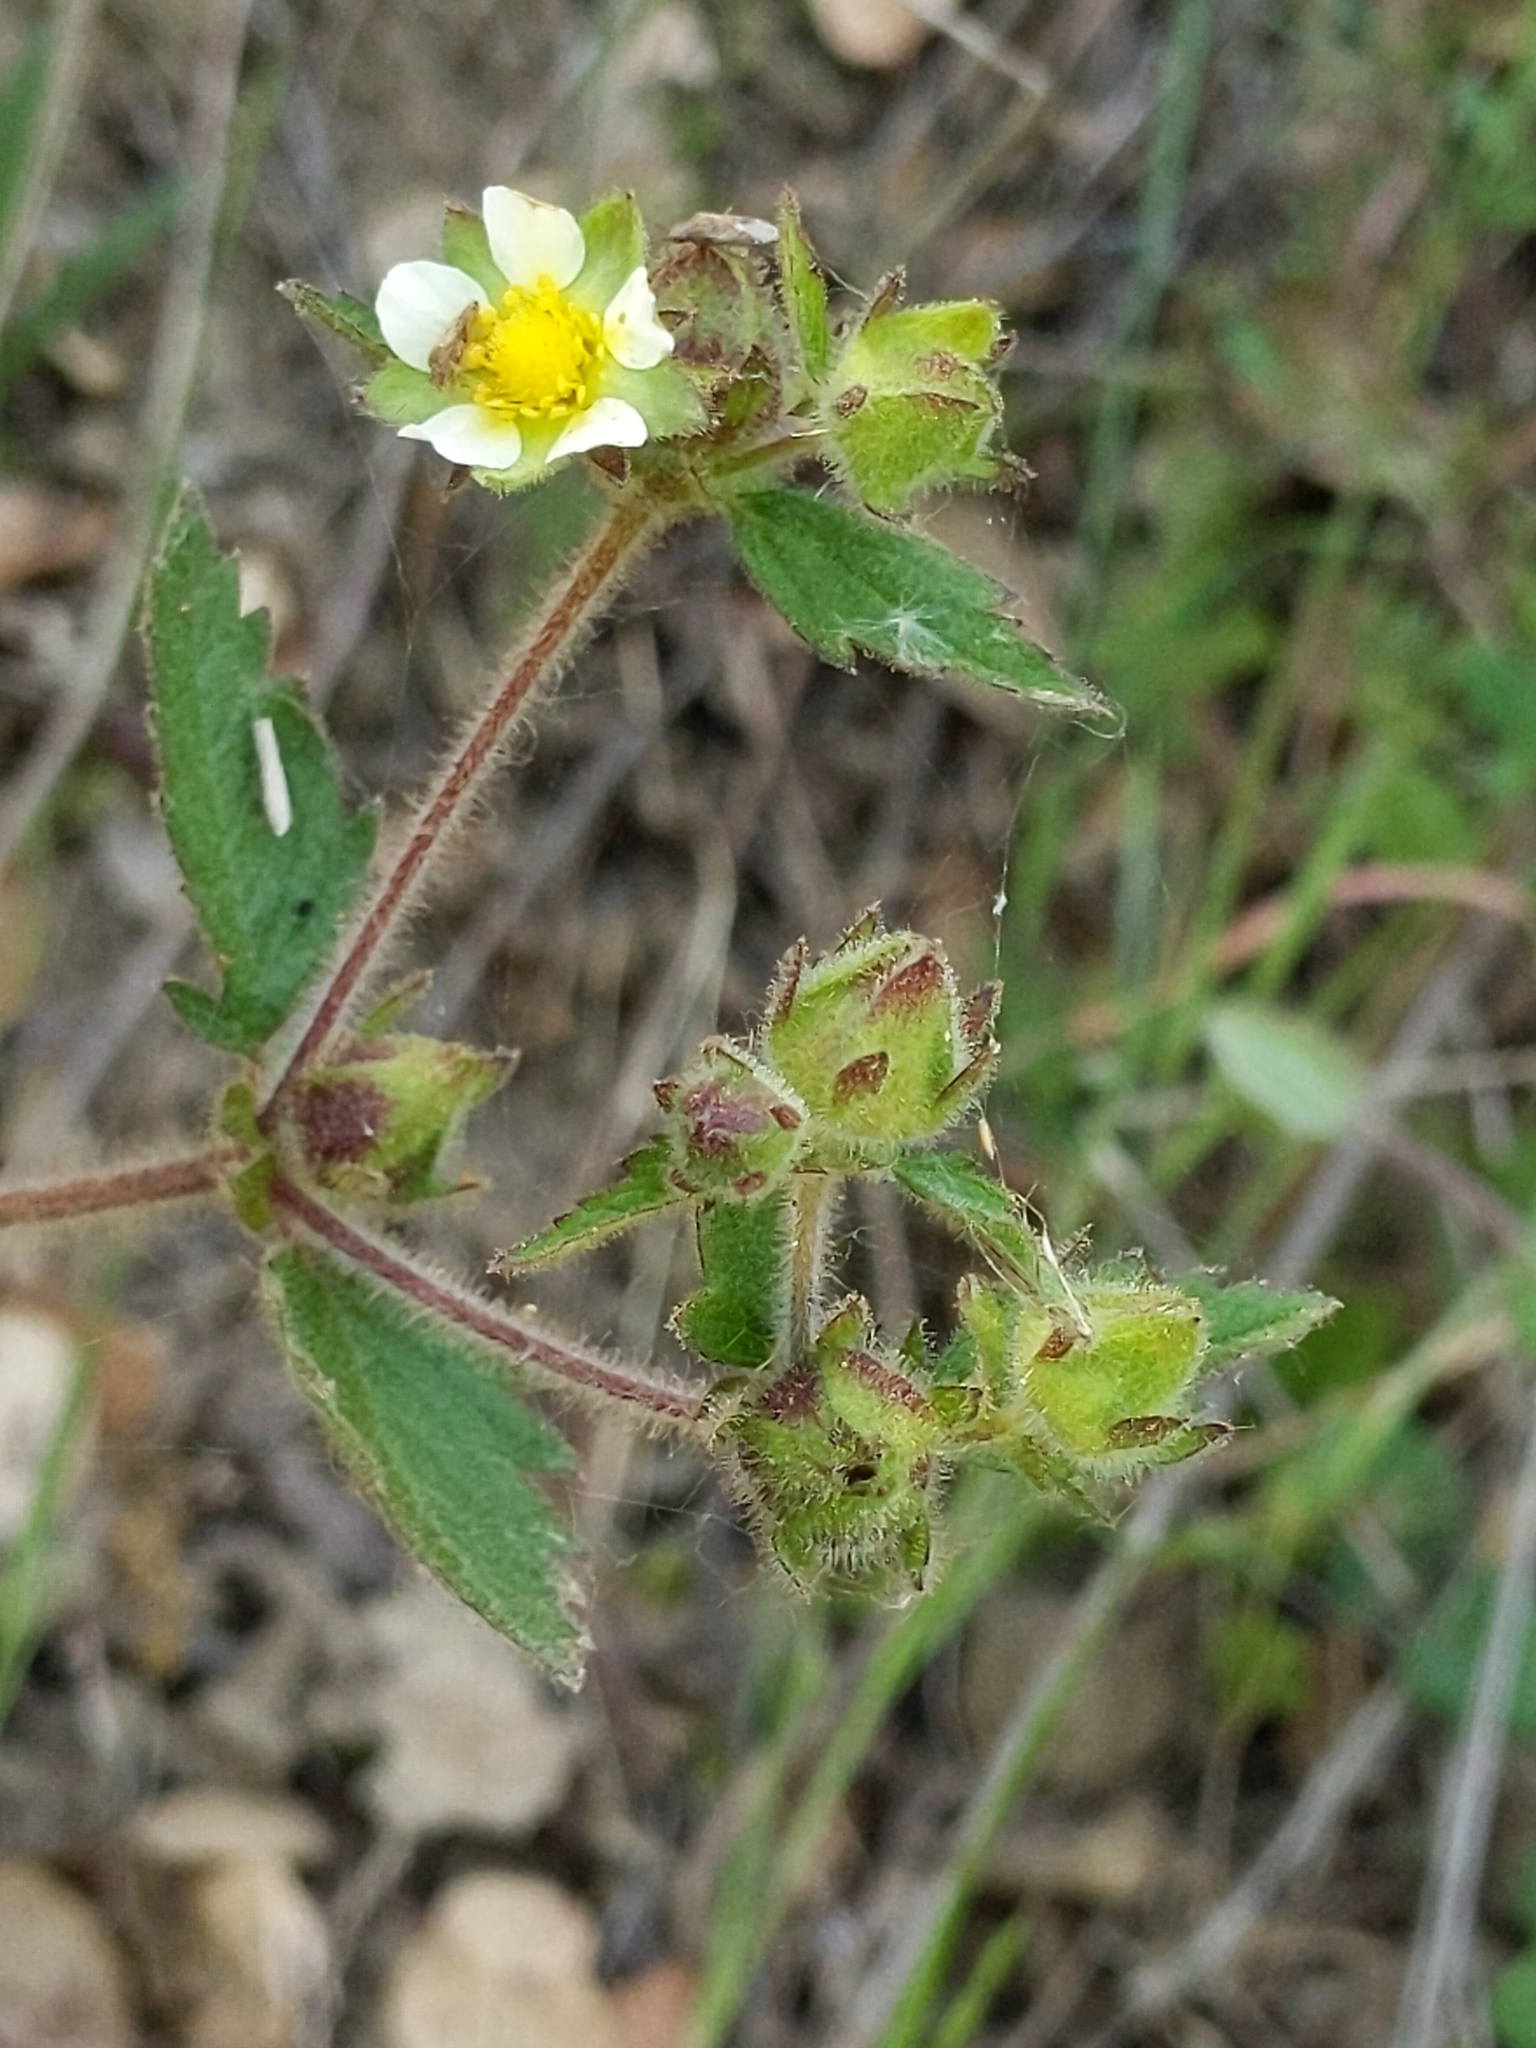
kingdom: Plantae
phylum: Tracheophyta
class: Magnoliopsida
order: Rosales
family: Rosaceae
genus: Drymocallis
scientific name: Drymocallis glandulosa
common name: Sticky cinquefoil
